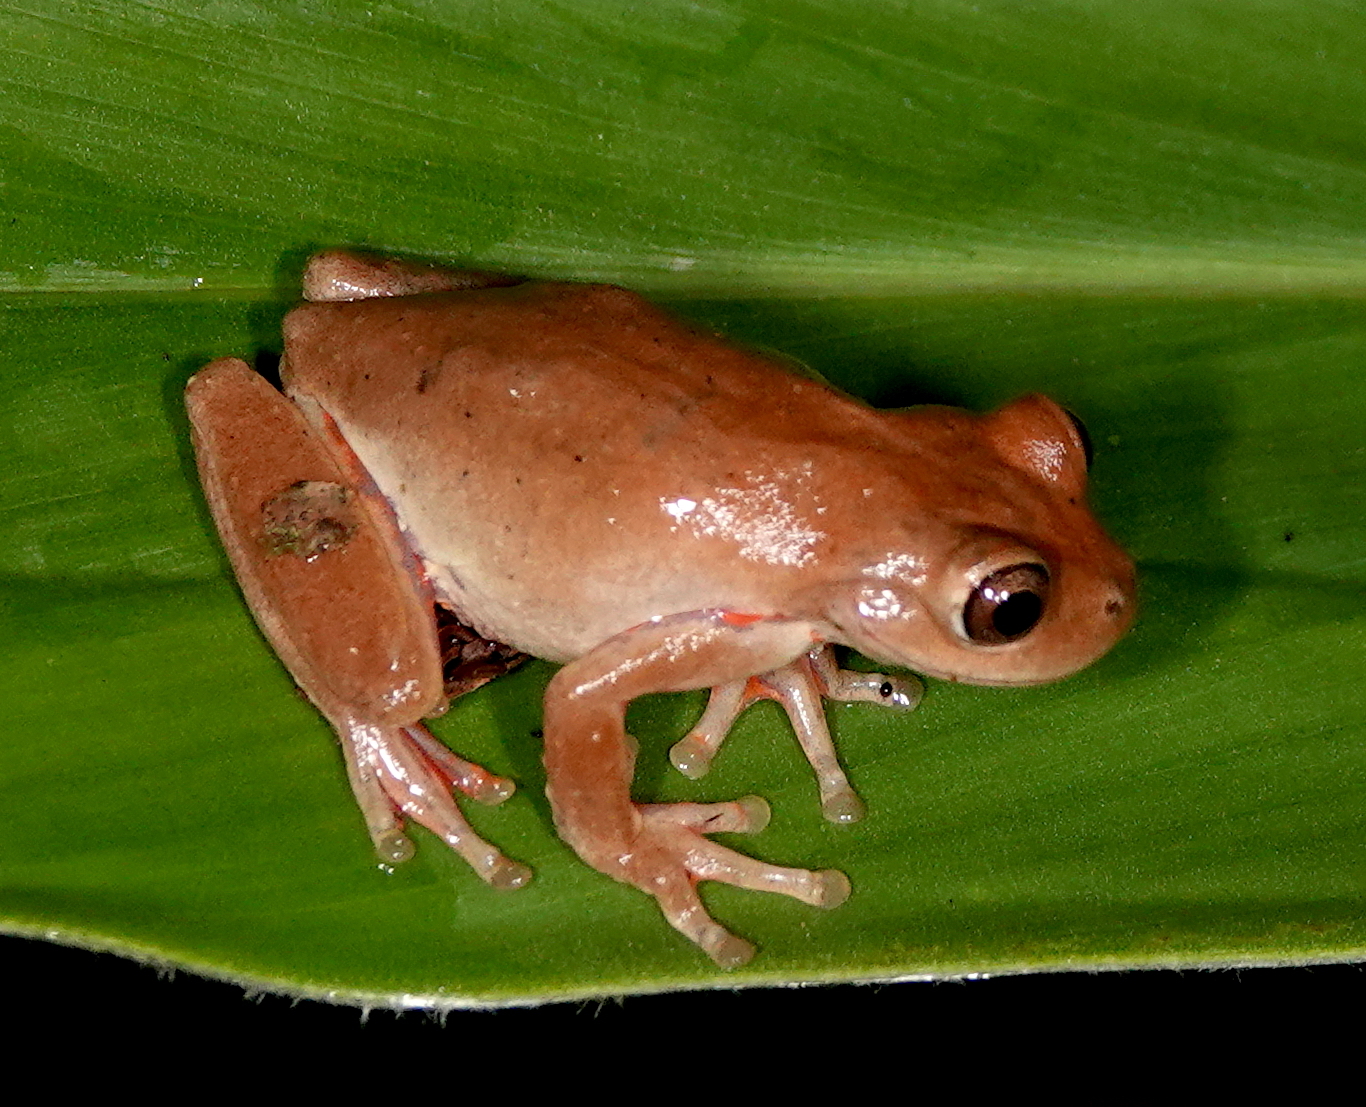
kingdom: Animalia
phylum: Chordata
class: Amphibia
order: Anura
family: Hylidae
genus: Dendropsophus
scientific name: Dendropsophus columbianus
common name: Boettger's colombian treefrog
